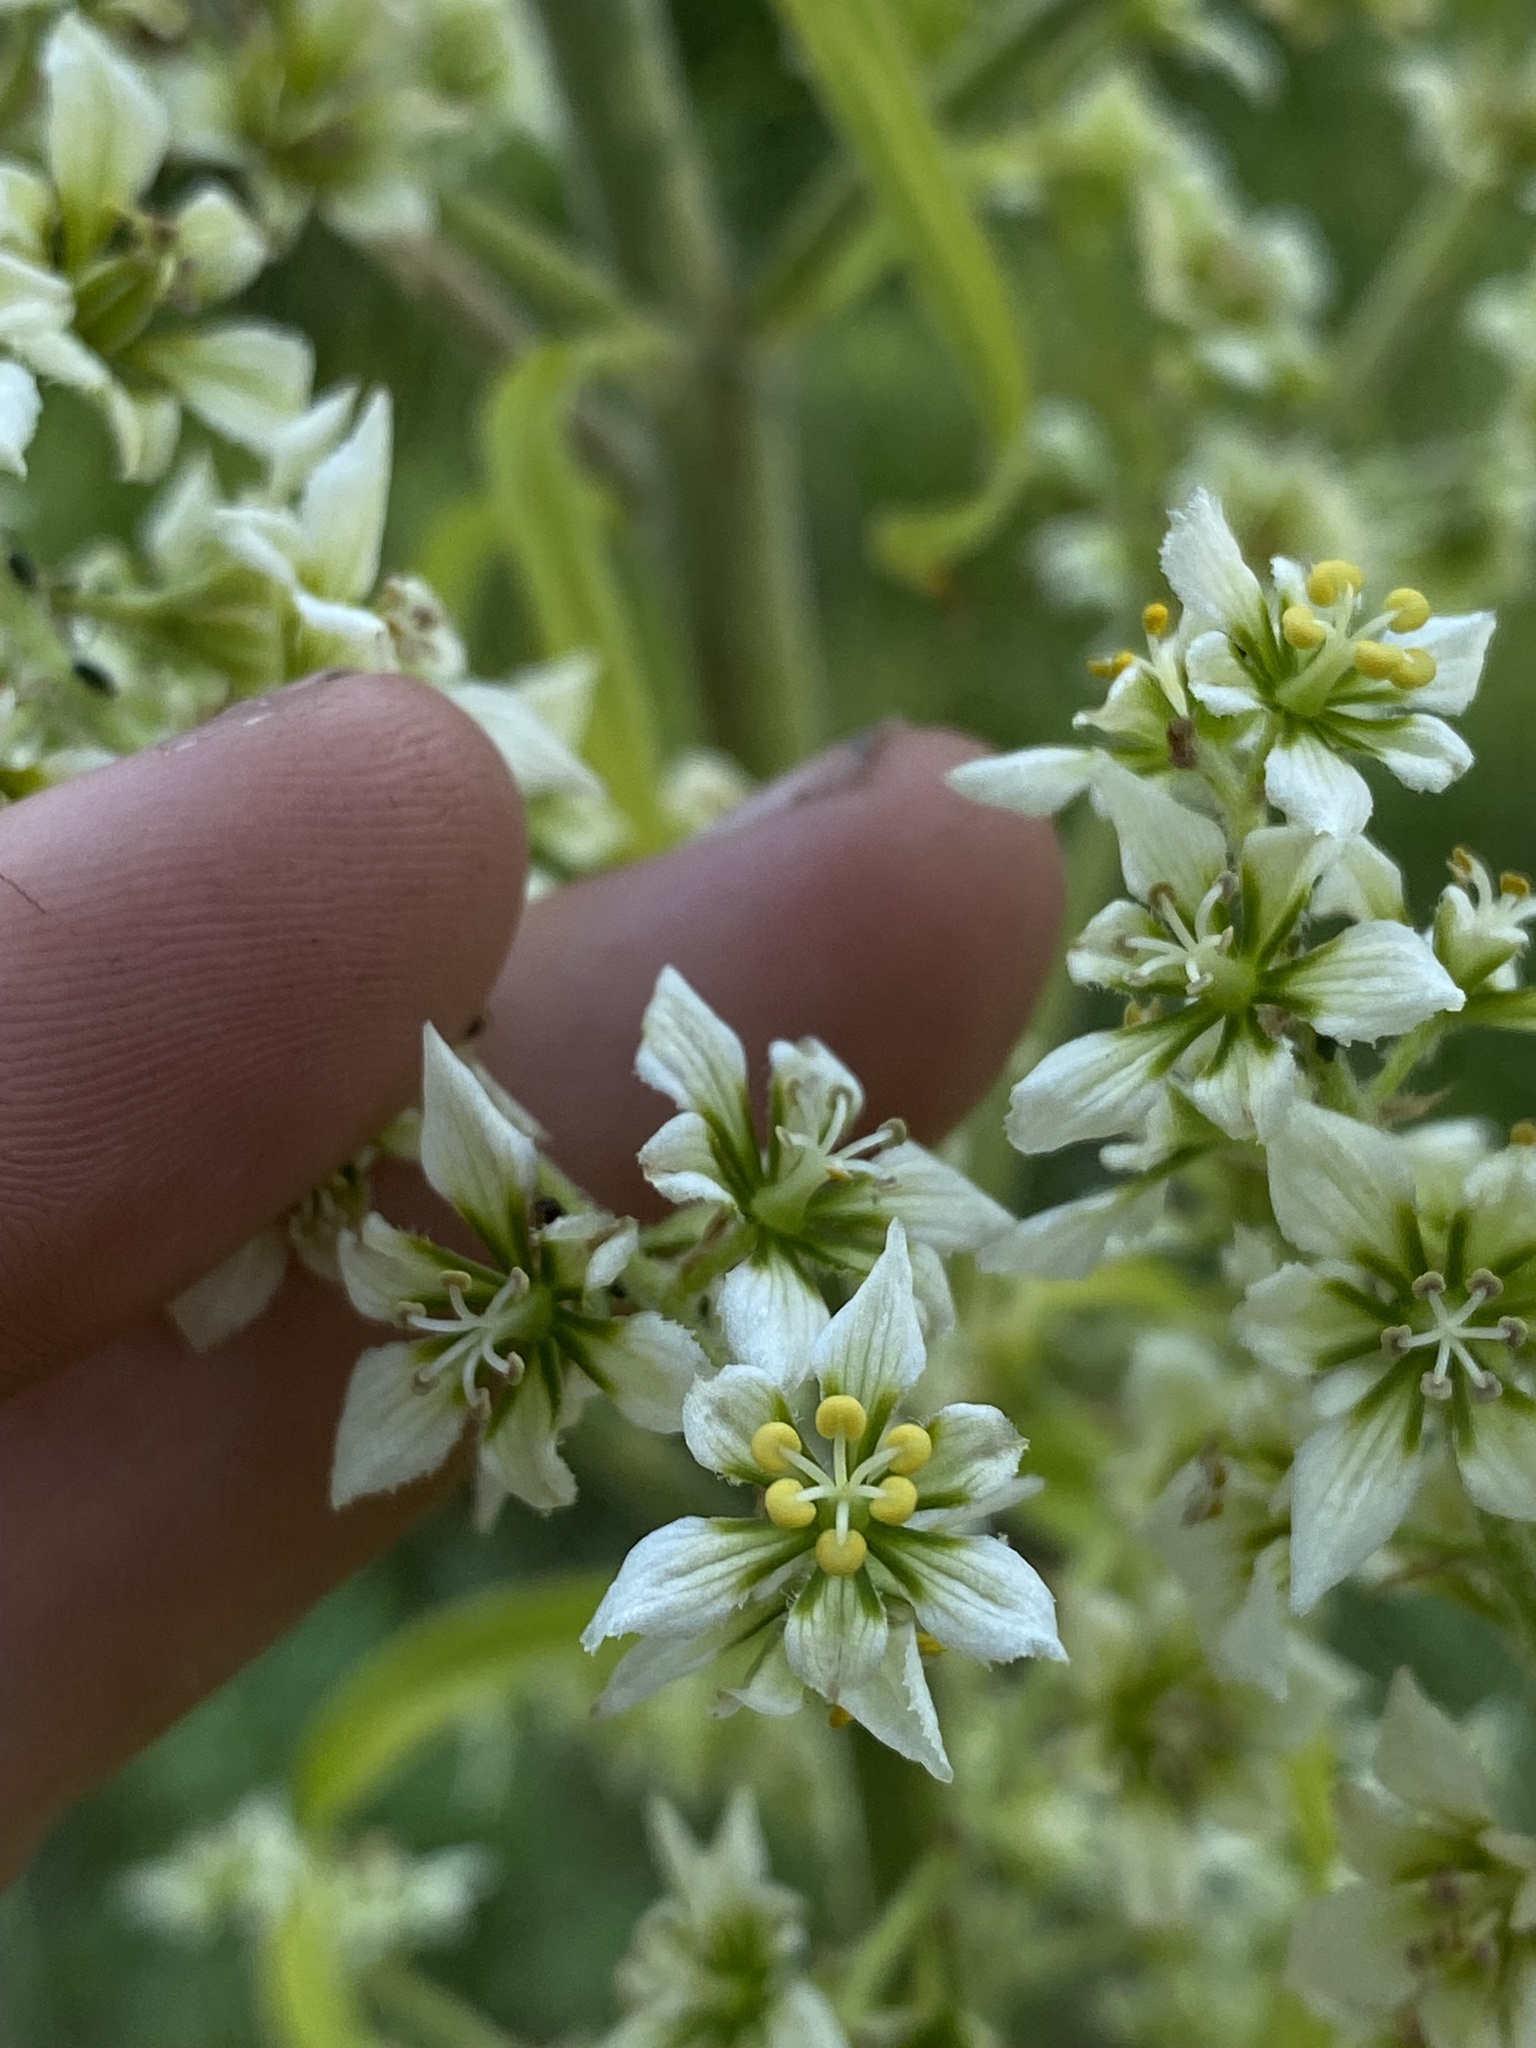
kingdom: Plantae
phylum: Tracheophyta
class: Liliopsida
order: Liliales
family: Melanthiaceae
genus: Veratrum
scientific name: Veratrum californicum
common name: California veratrum
